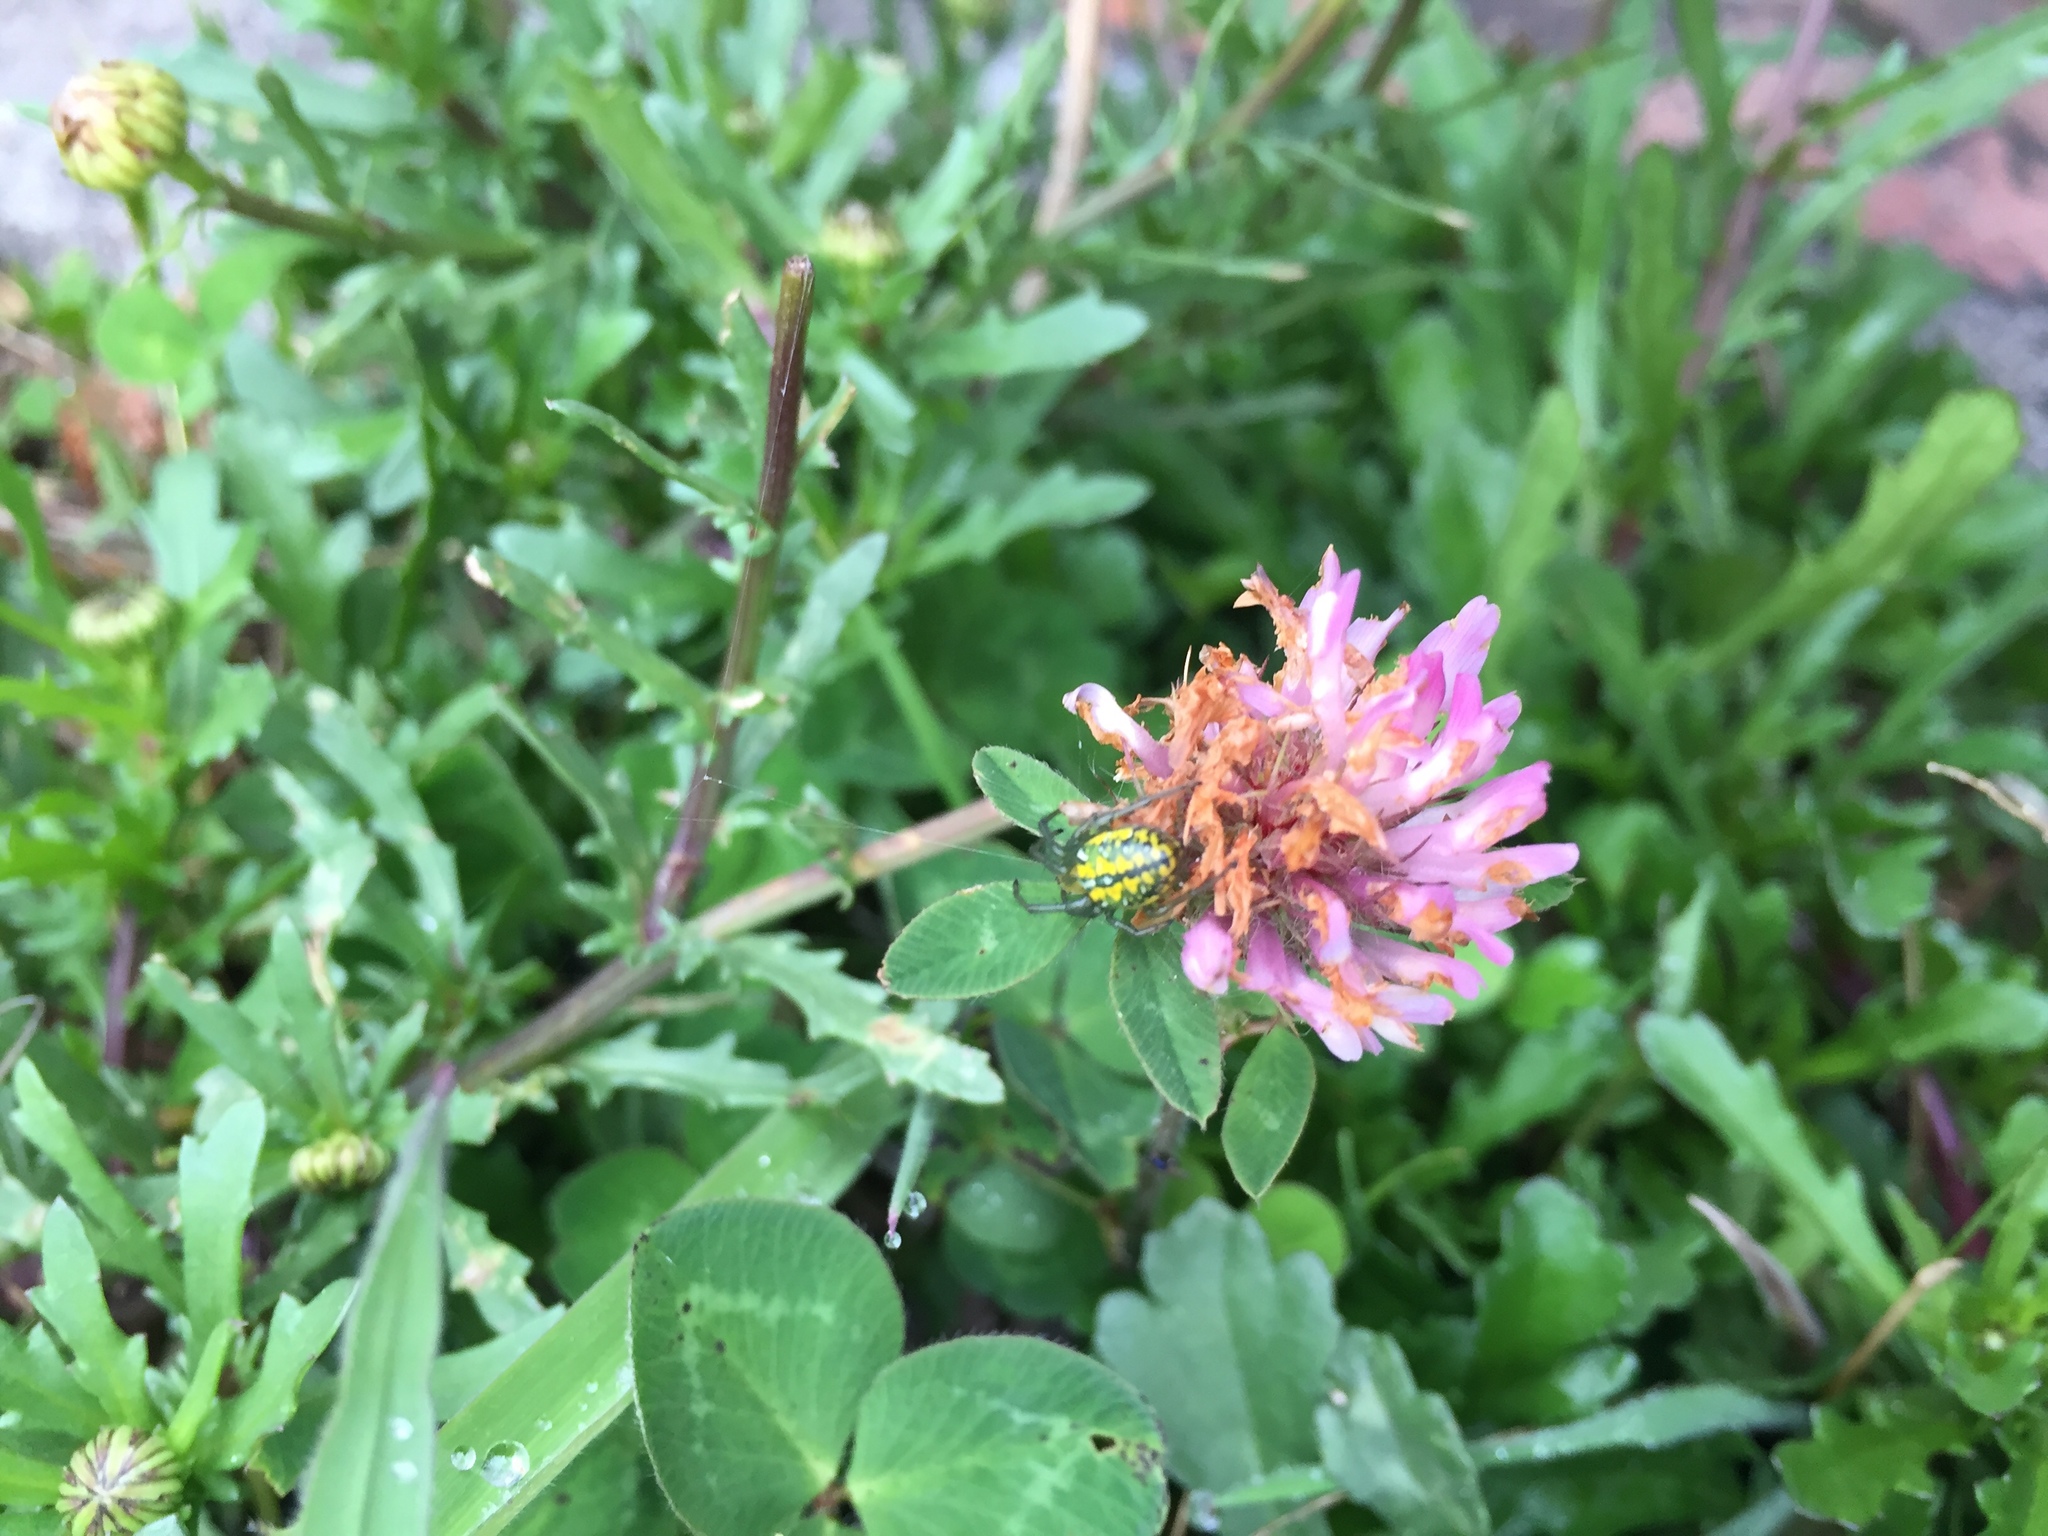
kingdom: Animalia
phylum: Arthropoda
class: Arachnida
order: Araneae
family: Araneidae
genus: Alpaida
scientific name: Alpaida variabilis
